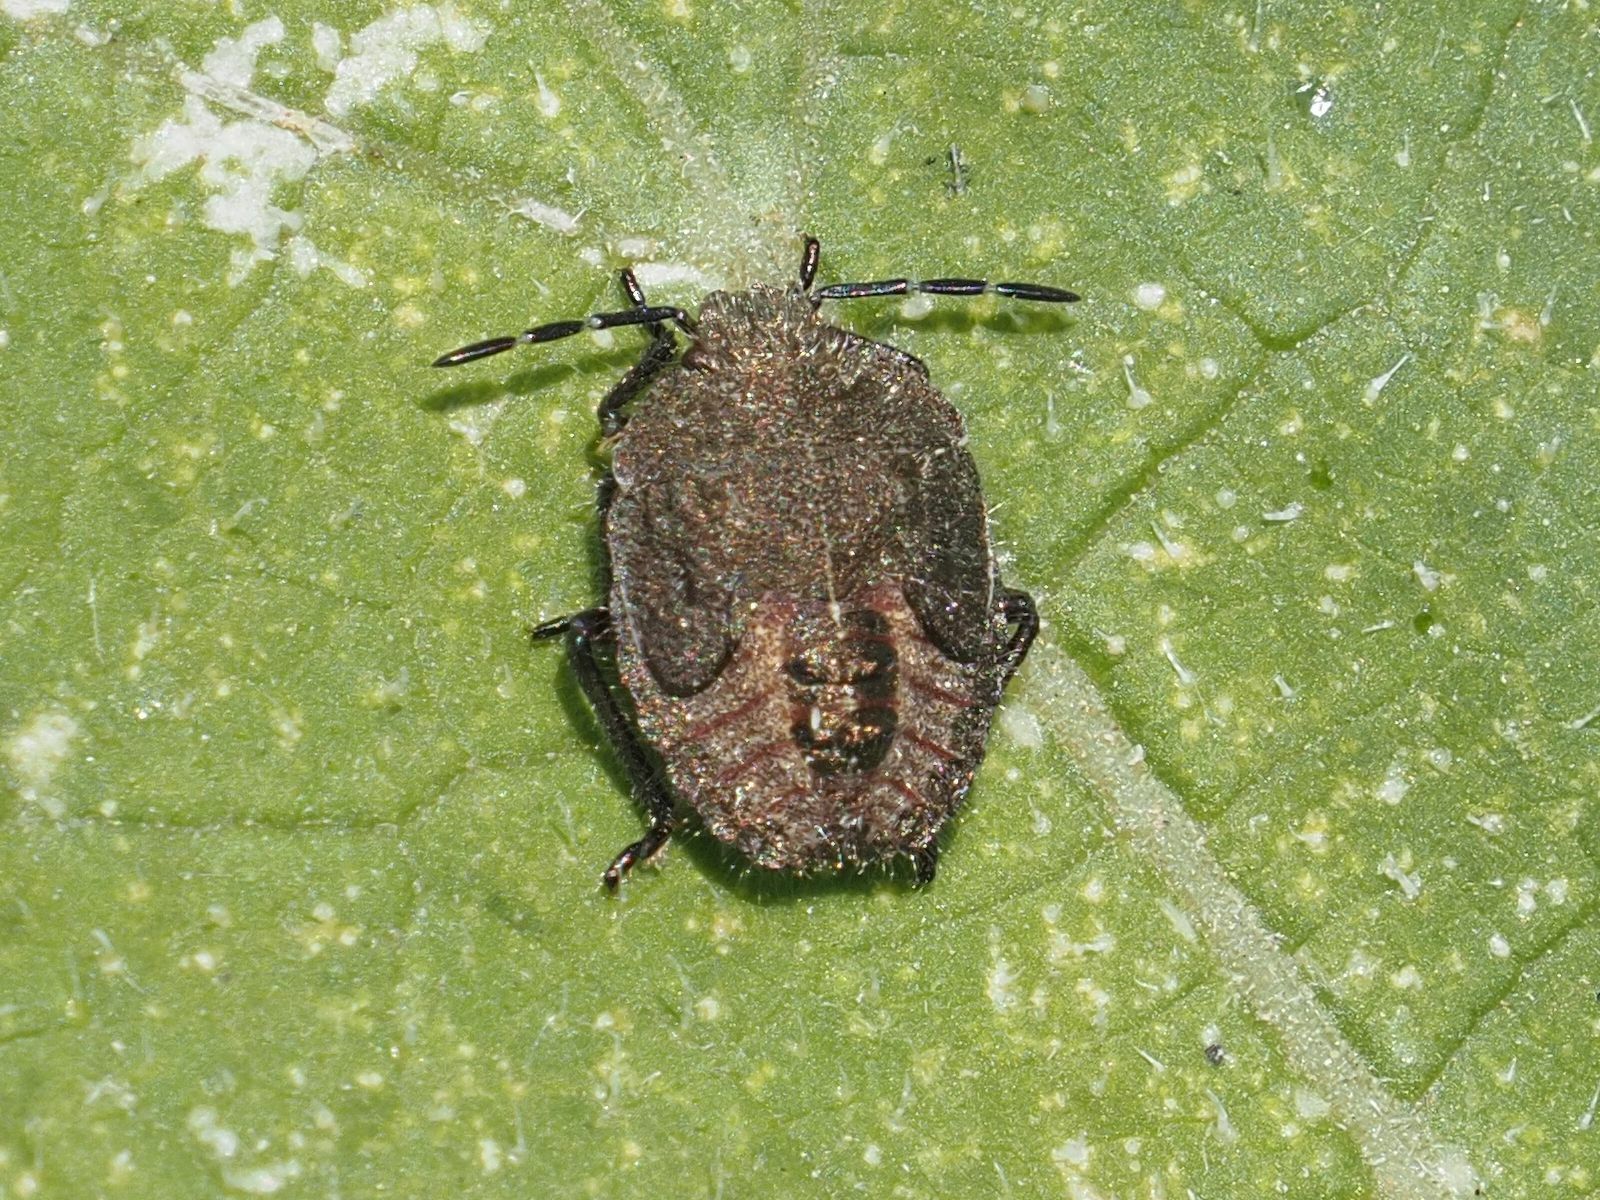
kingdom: Animalia
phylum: Arthropoda
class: Insecta
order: Hemiptera
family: Pentatomidae
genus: Dolycoris
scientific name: Dolycoris baccarum
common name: Sloe bug
